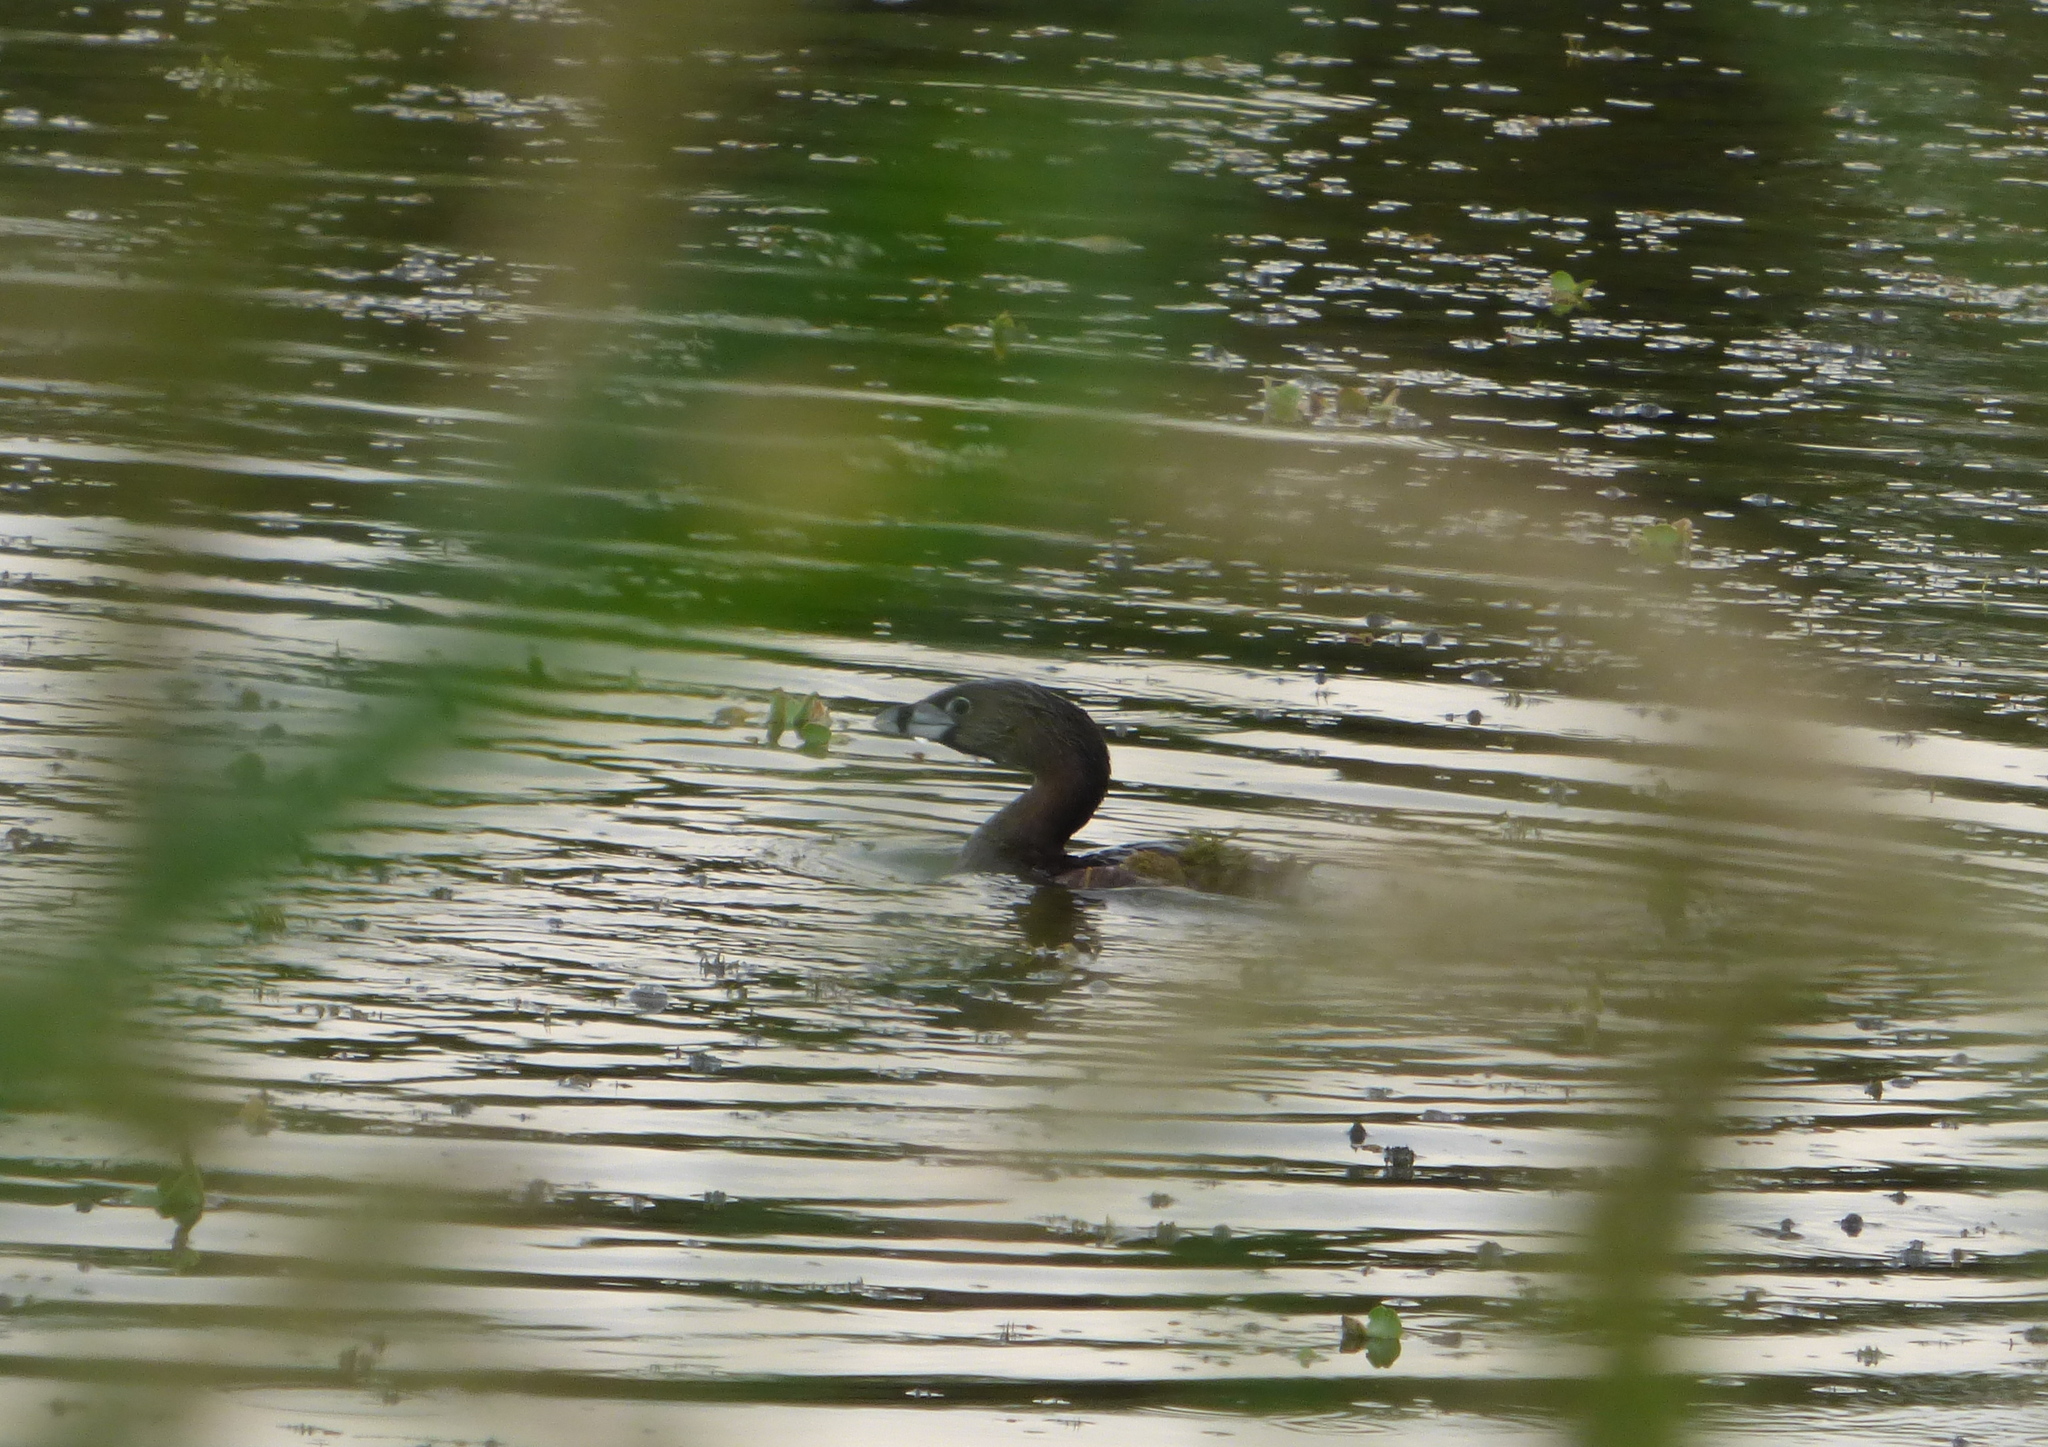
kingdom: Animalia
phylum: Chordata
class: Aves
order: Podicipediformes
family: Podicipedidae
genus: Podilymbus
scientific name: Podilymbus podiceps
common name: Pied-billed grebe
